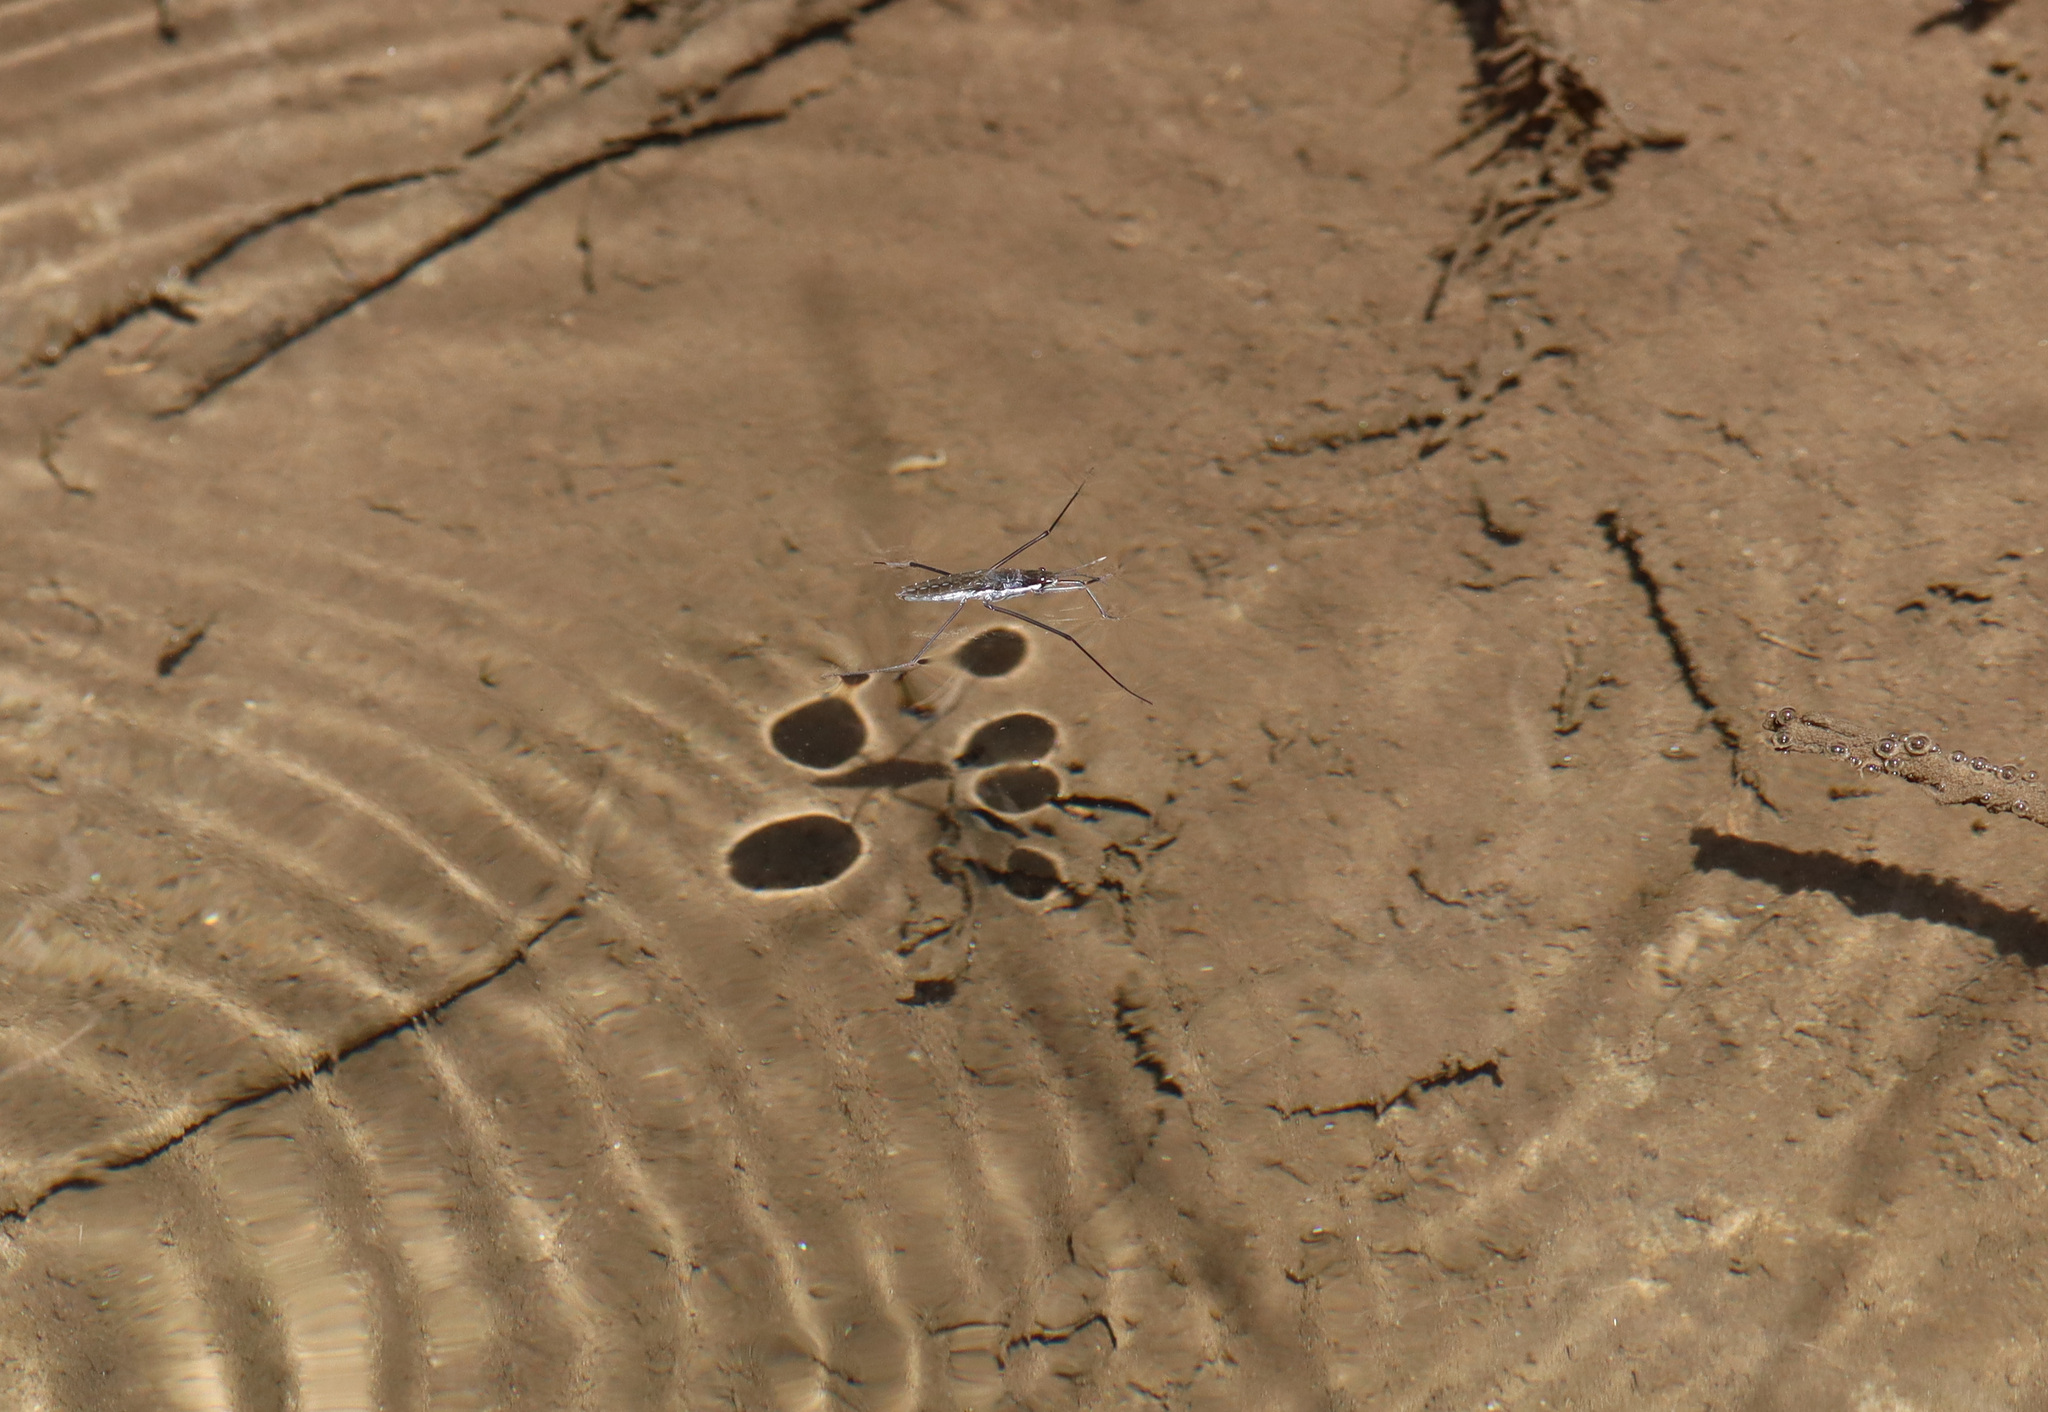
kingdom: Animalia
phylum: Arthropoda
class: Insecta
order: Hemiptera
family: Gerridae
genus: Aquarius
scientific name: Aquarius remigis
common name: Common water strider
